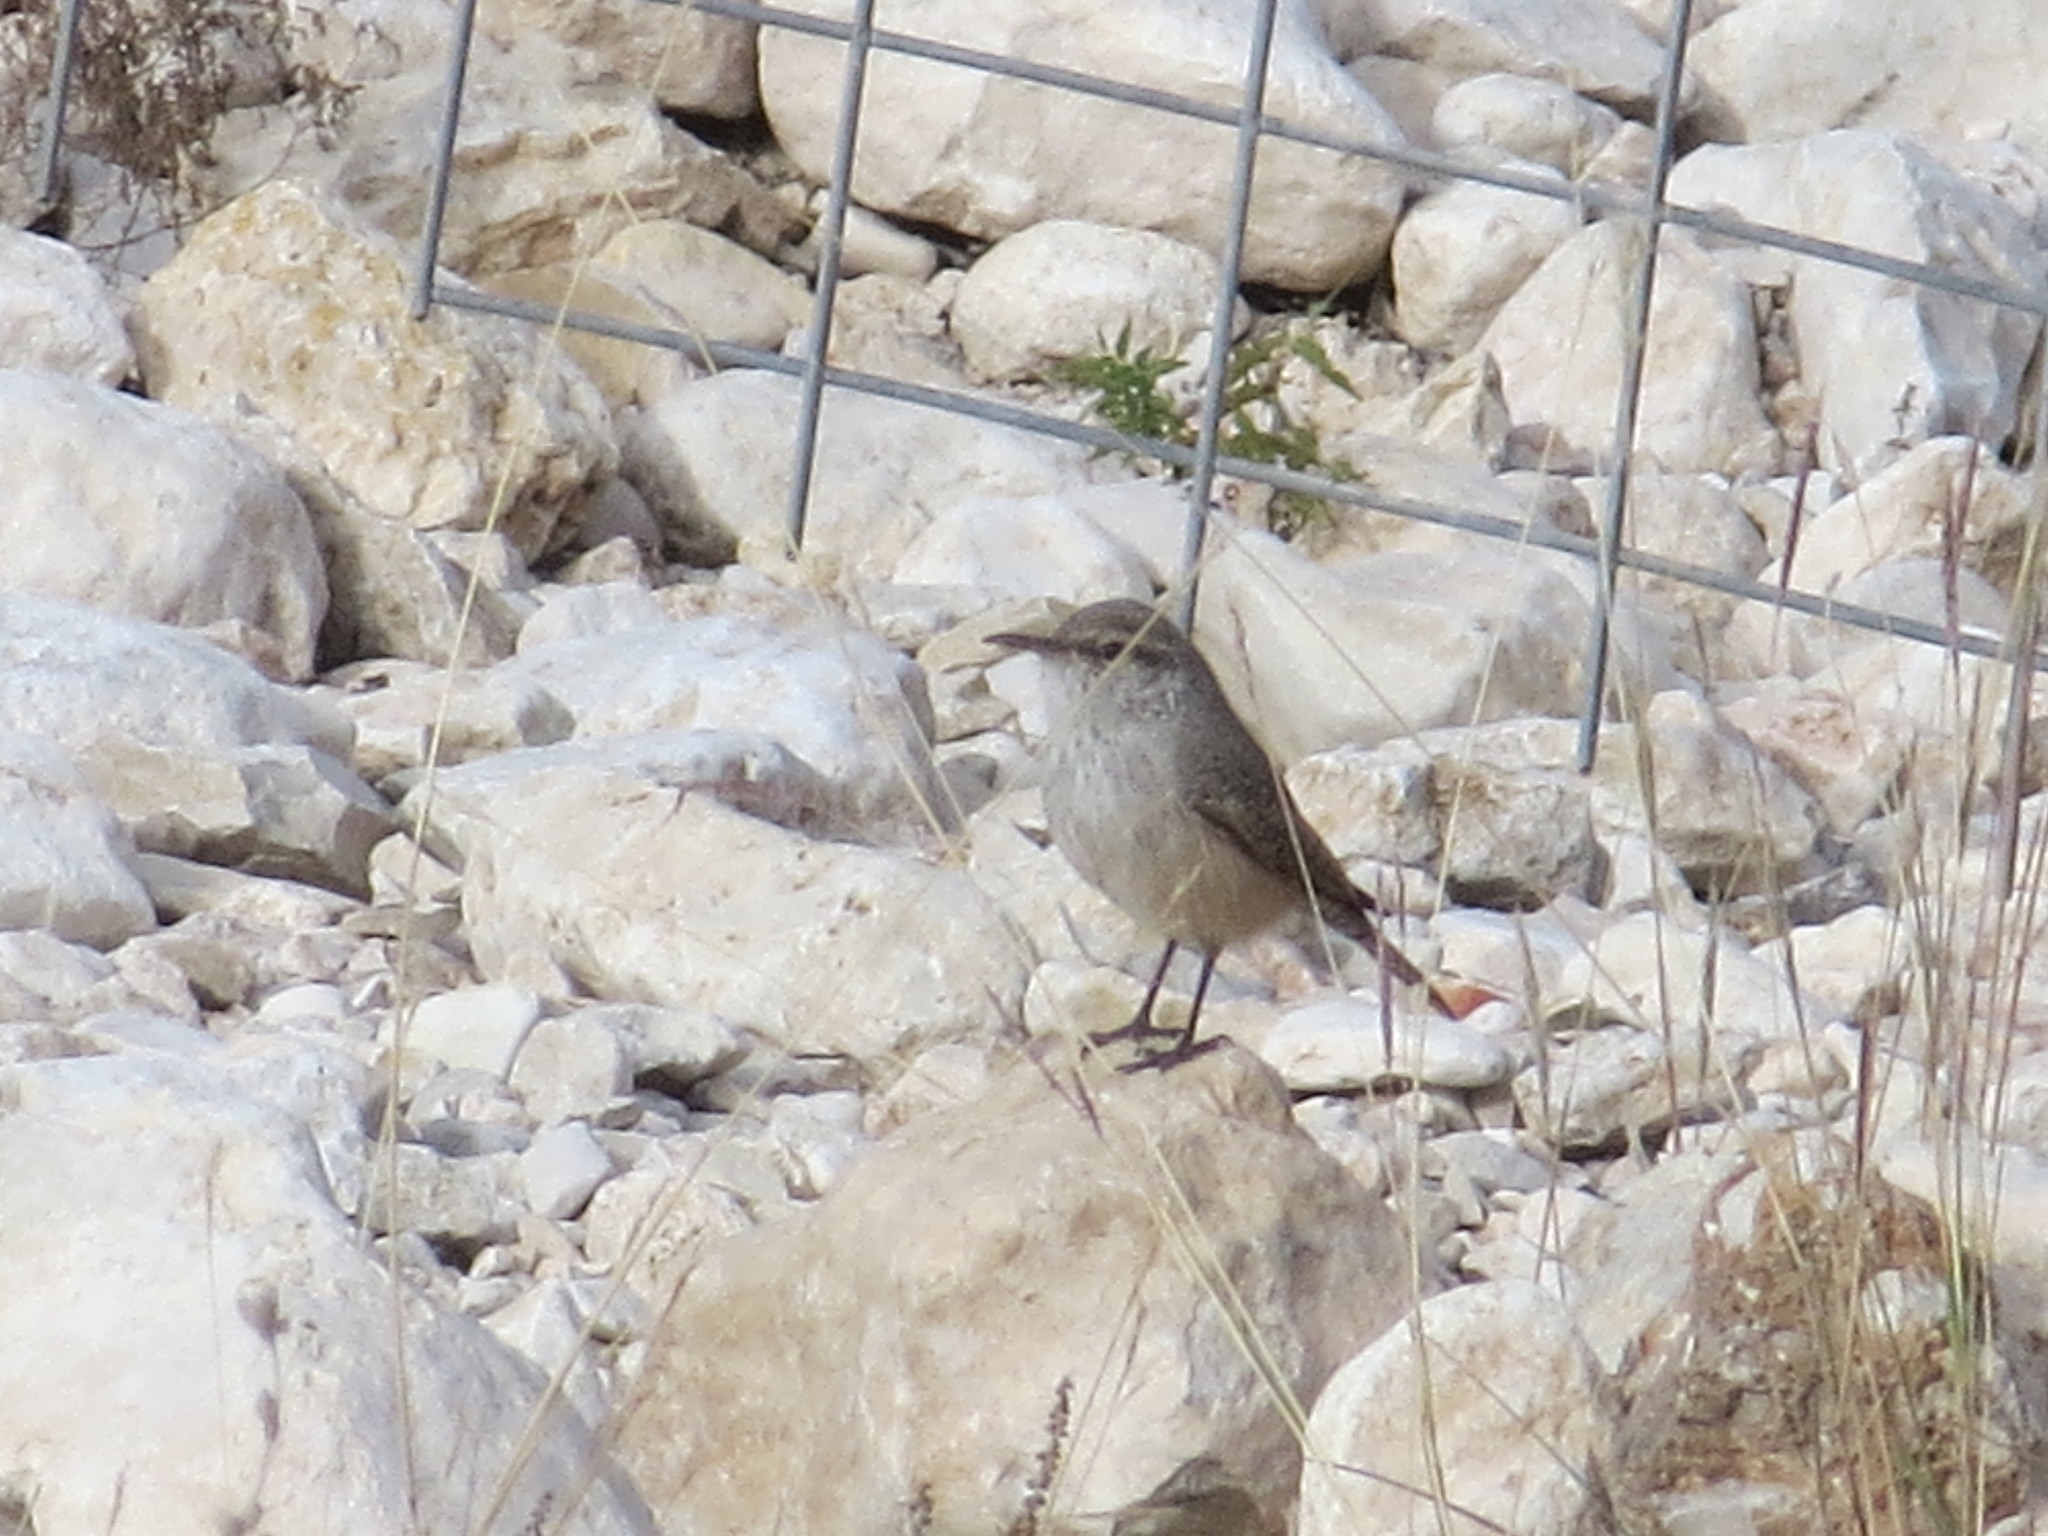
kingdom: Animalia
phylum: Chordata
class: Aves
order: Passeriformes
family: Troglodytidae
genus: Salpinctes
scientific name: Salpinctes obsoletus
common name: Rock wren
